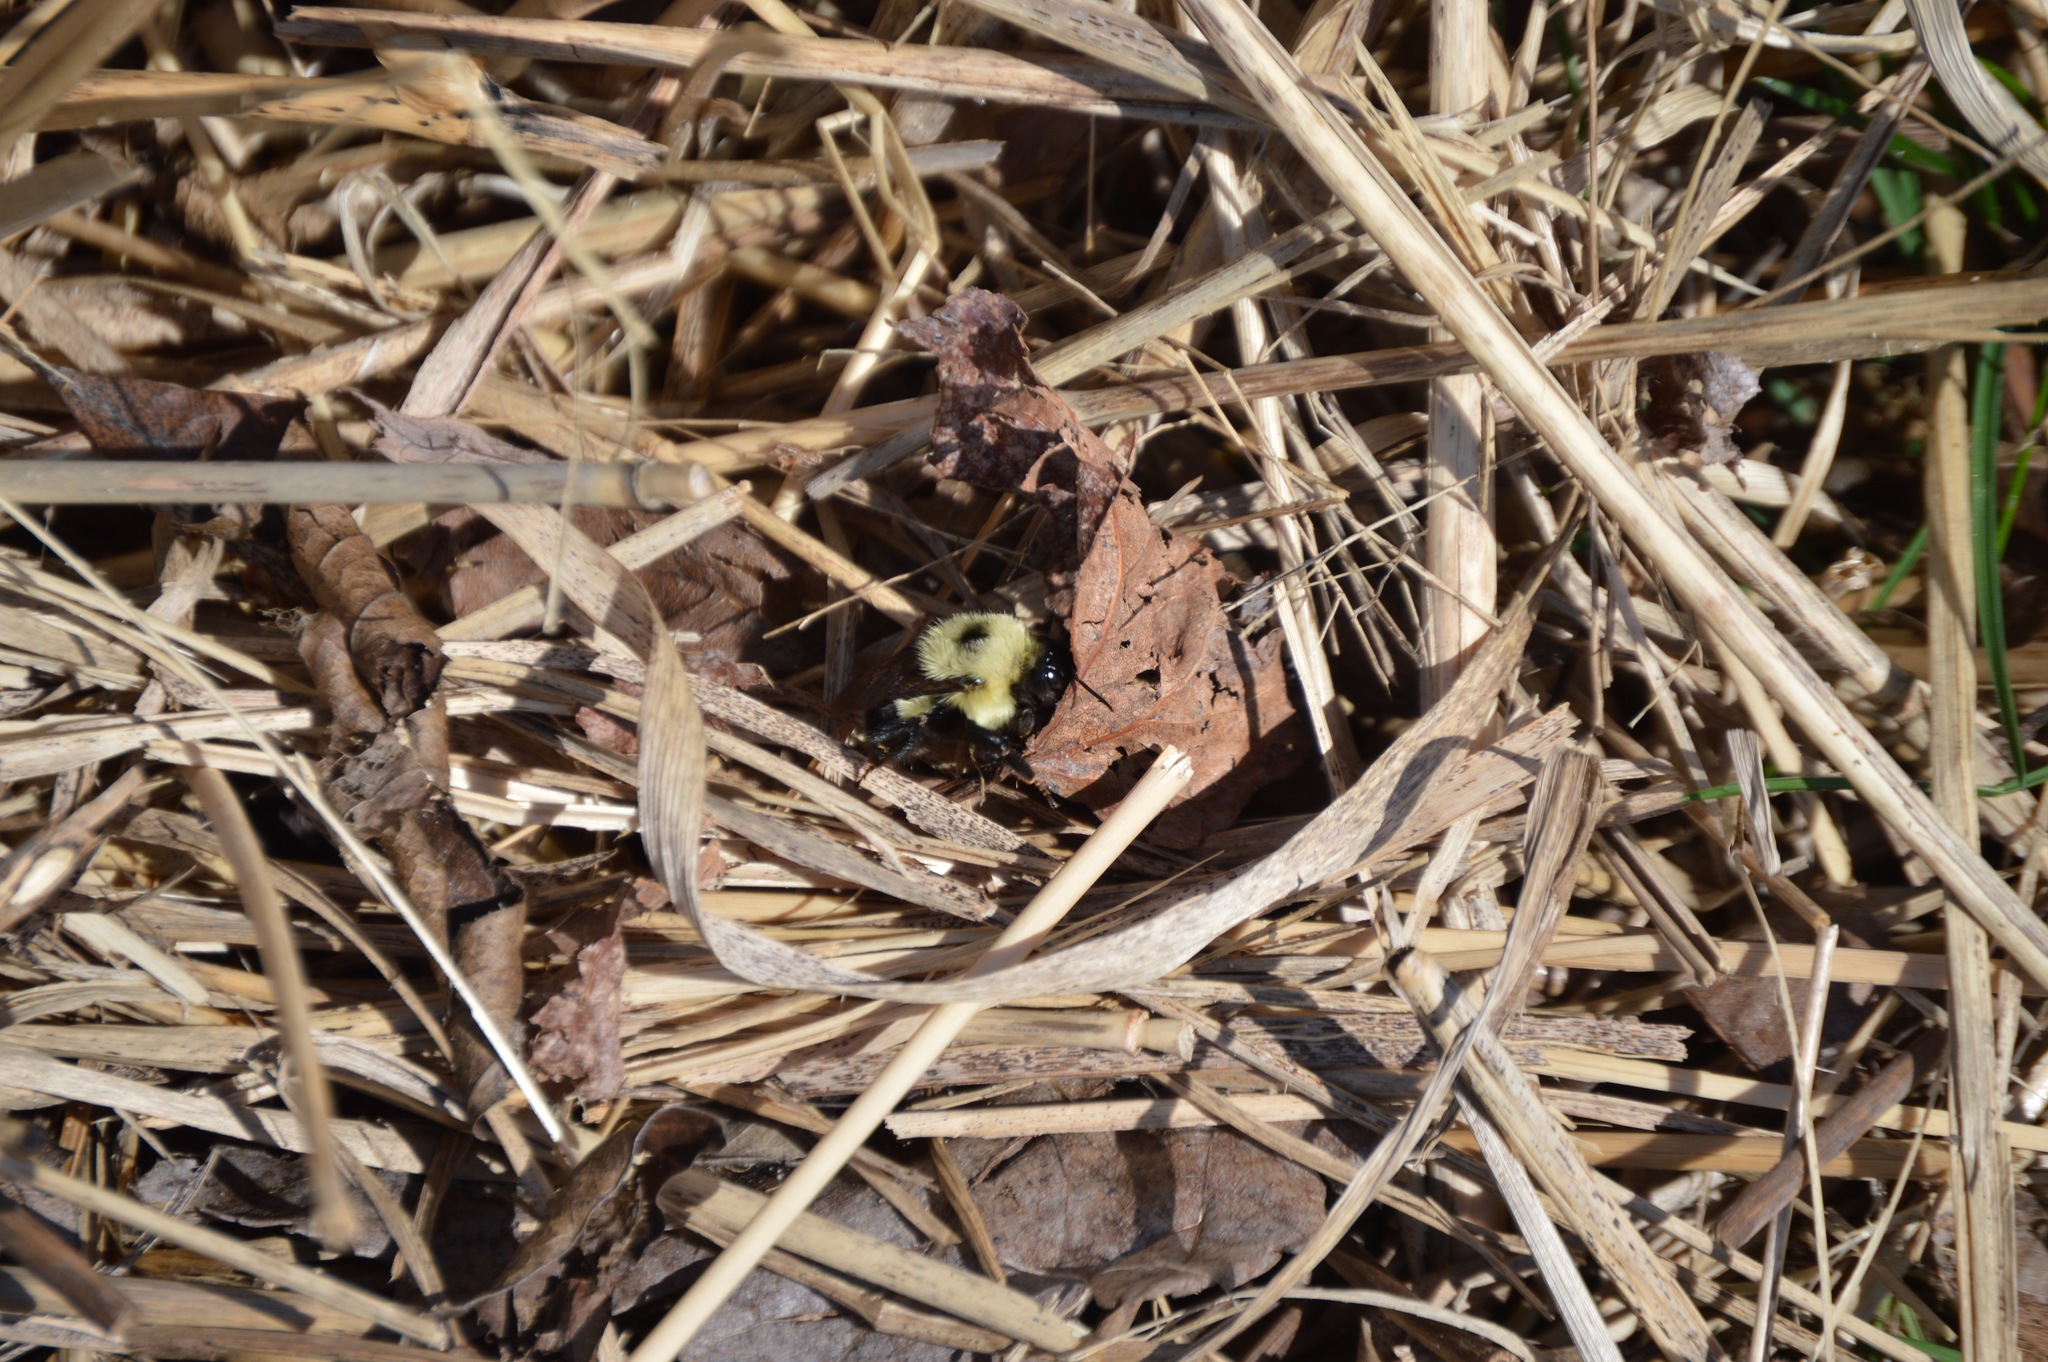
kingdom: Animalia
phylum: Arthropoda
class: Insecta
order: Hymenoptera
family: Apidae
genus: Bombus
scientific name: Bombus bimaculatus
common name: Two-spotted bumble bee
